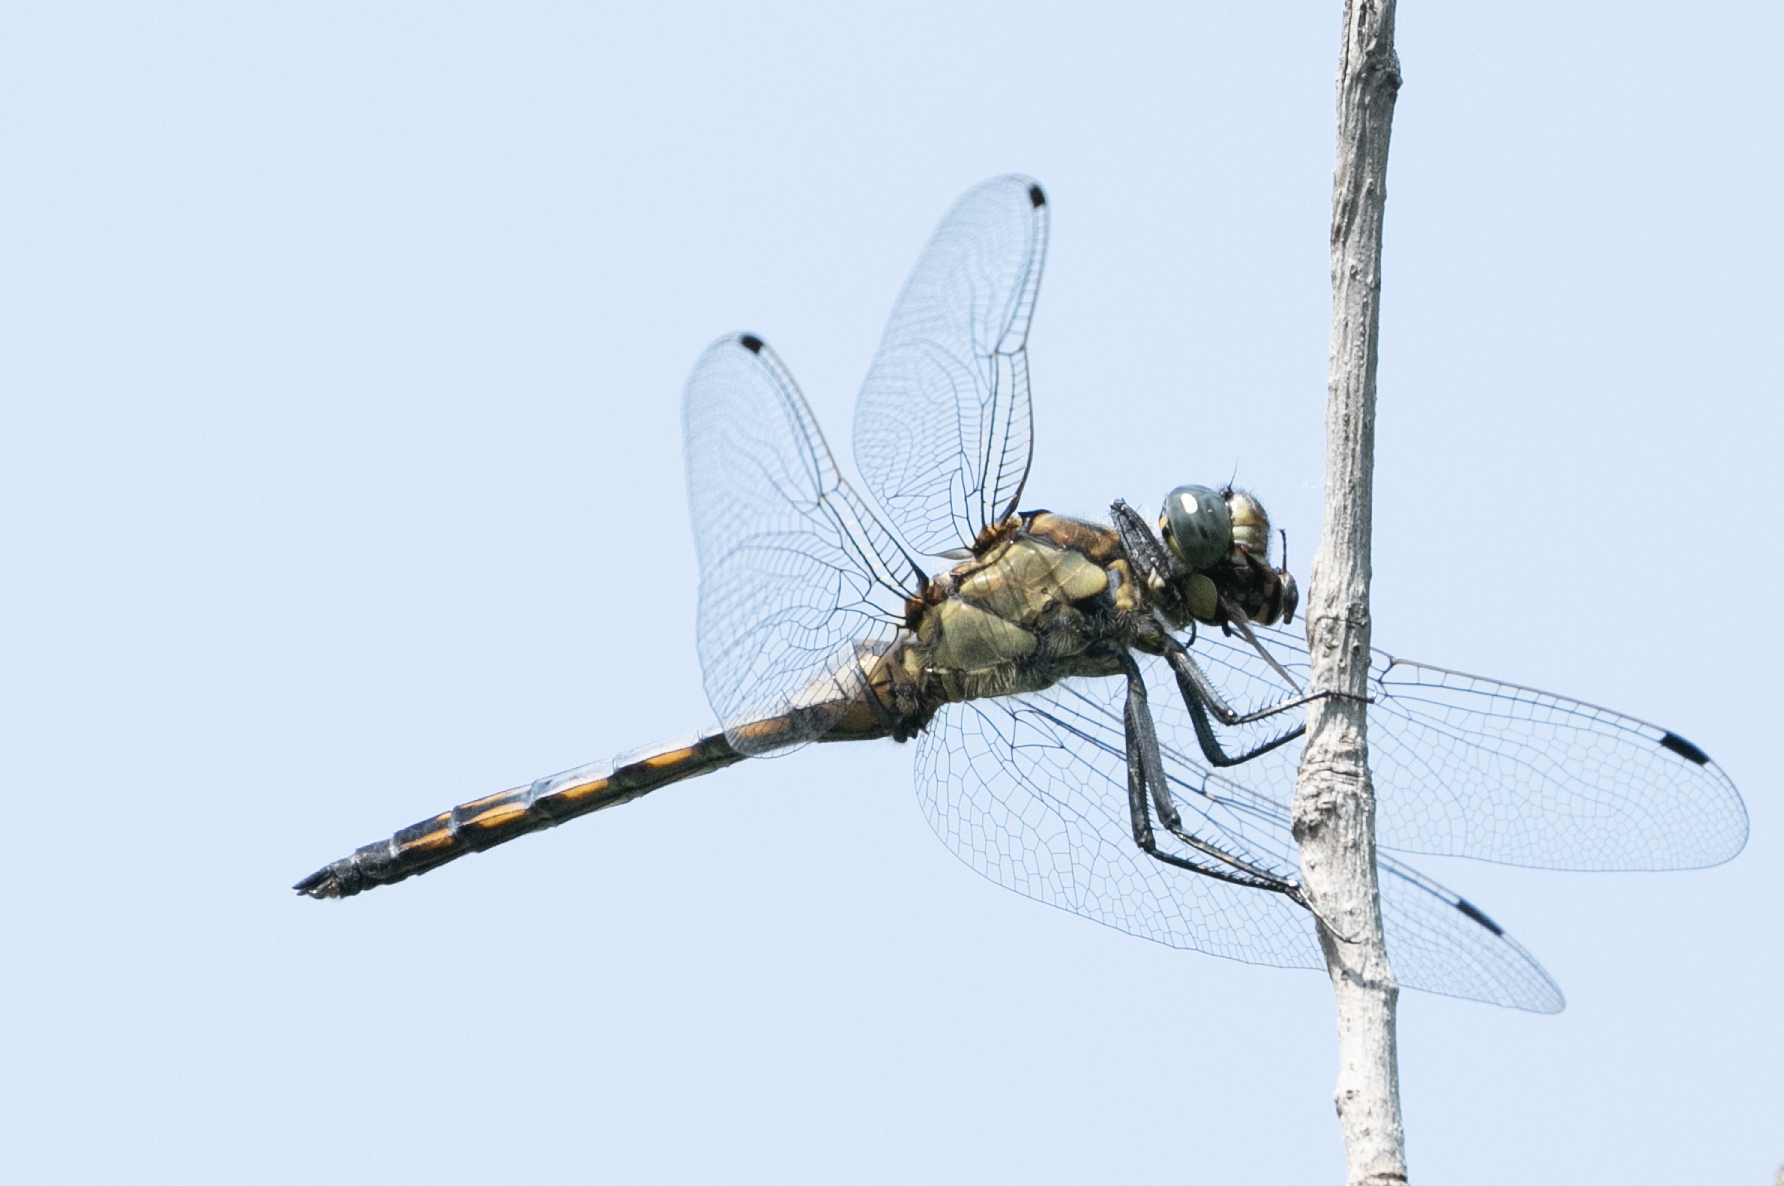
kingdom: Animalia
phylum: Arthropoda
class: Insecta
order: Odonata
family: Libellulidae
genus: Orthetrum
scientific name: Orthetrum cancellatum
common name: Black-tailed skimmer
